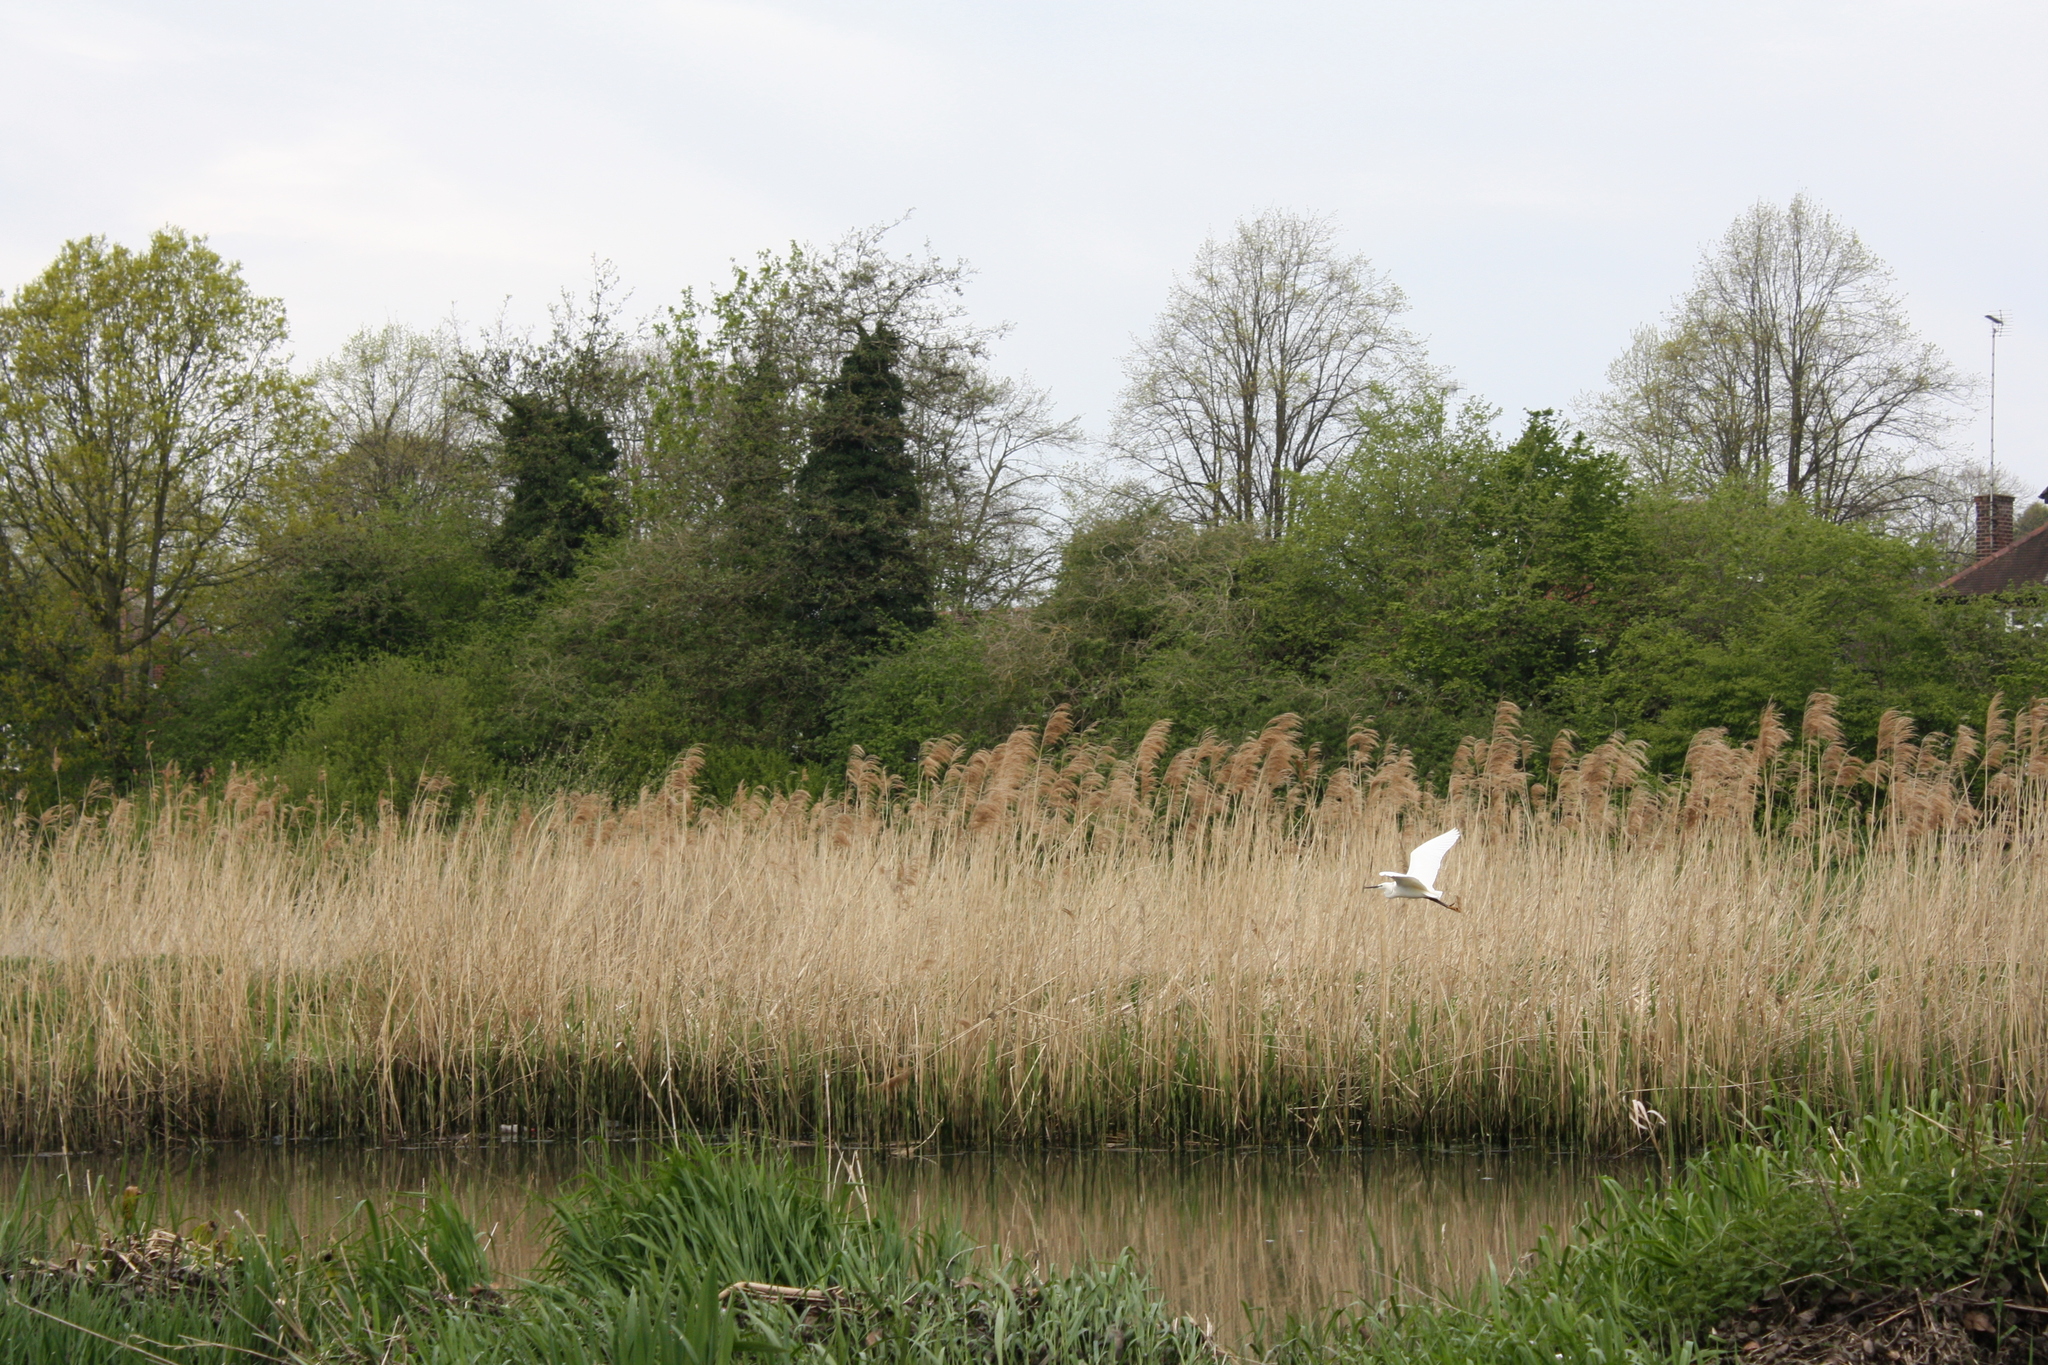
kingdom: Animalia
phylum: Chordata
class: Aves
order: Pelecaniformes
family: Ardeidae
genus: Egretta
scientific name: Egretta garzetta
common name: Little egret
